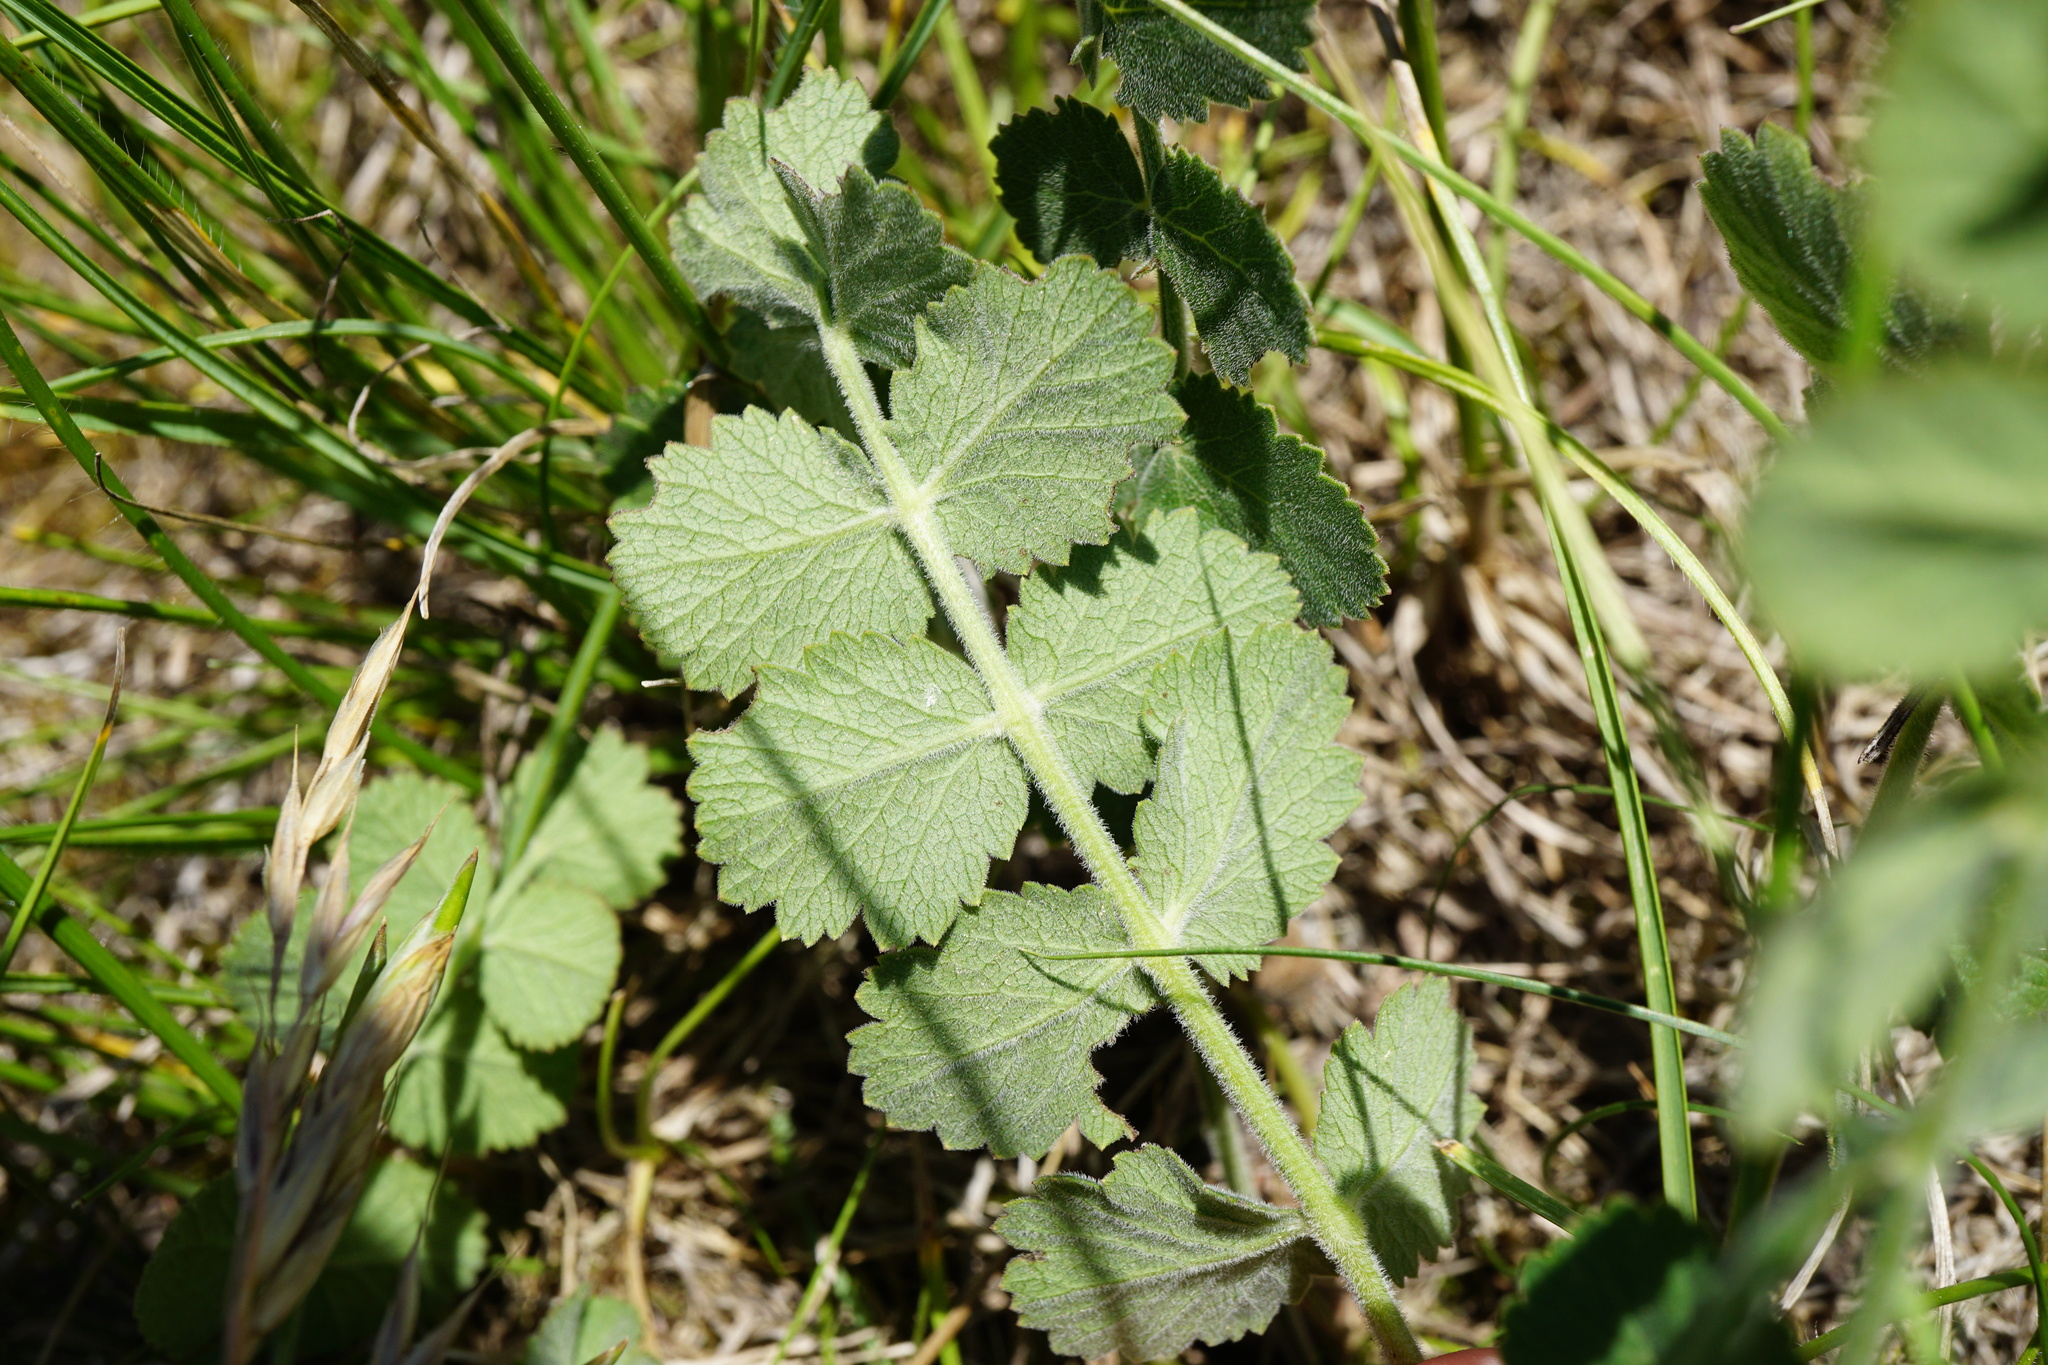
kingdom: Plantae
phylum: Tracheophyta
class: Magnoliopsida
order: Apiales
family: Apiaceae
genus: Pimpinella
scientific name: Pimpinella saxifraga
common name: Burnet-saxifrage
